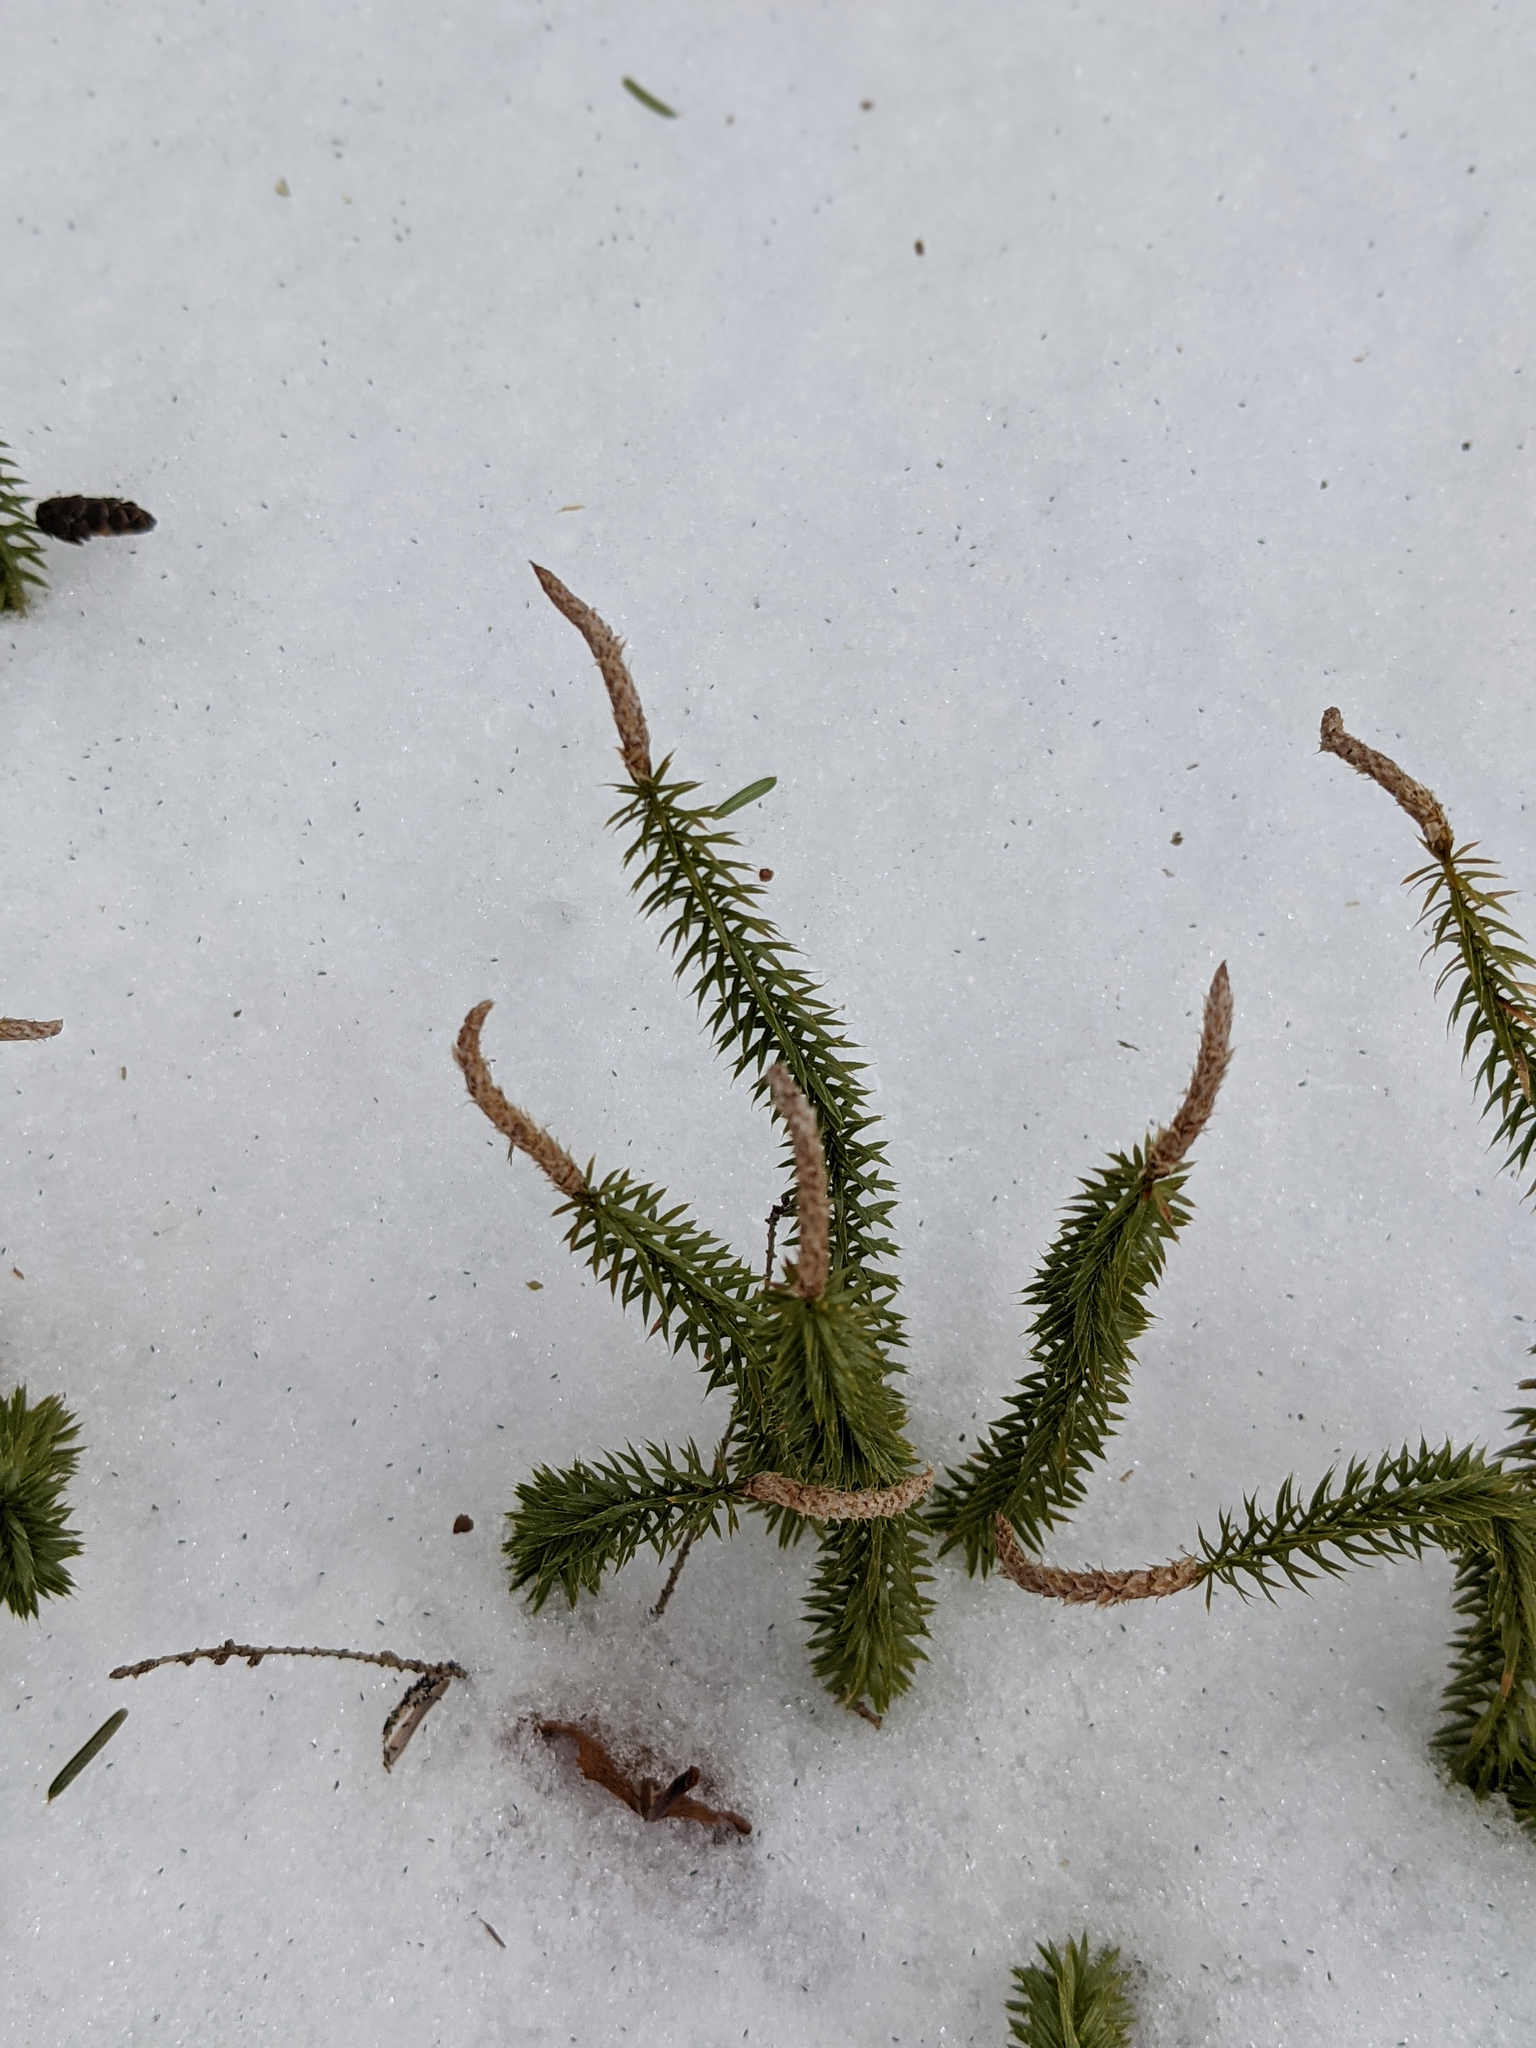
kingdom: Plantae
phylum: Tracheophyta
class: Lycopodiopsida
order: Lycopodiales
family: Lycopodiaceae
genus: Spinulum
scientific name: Spinulum annotinum
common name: Interrupted club-moss
